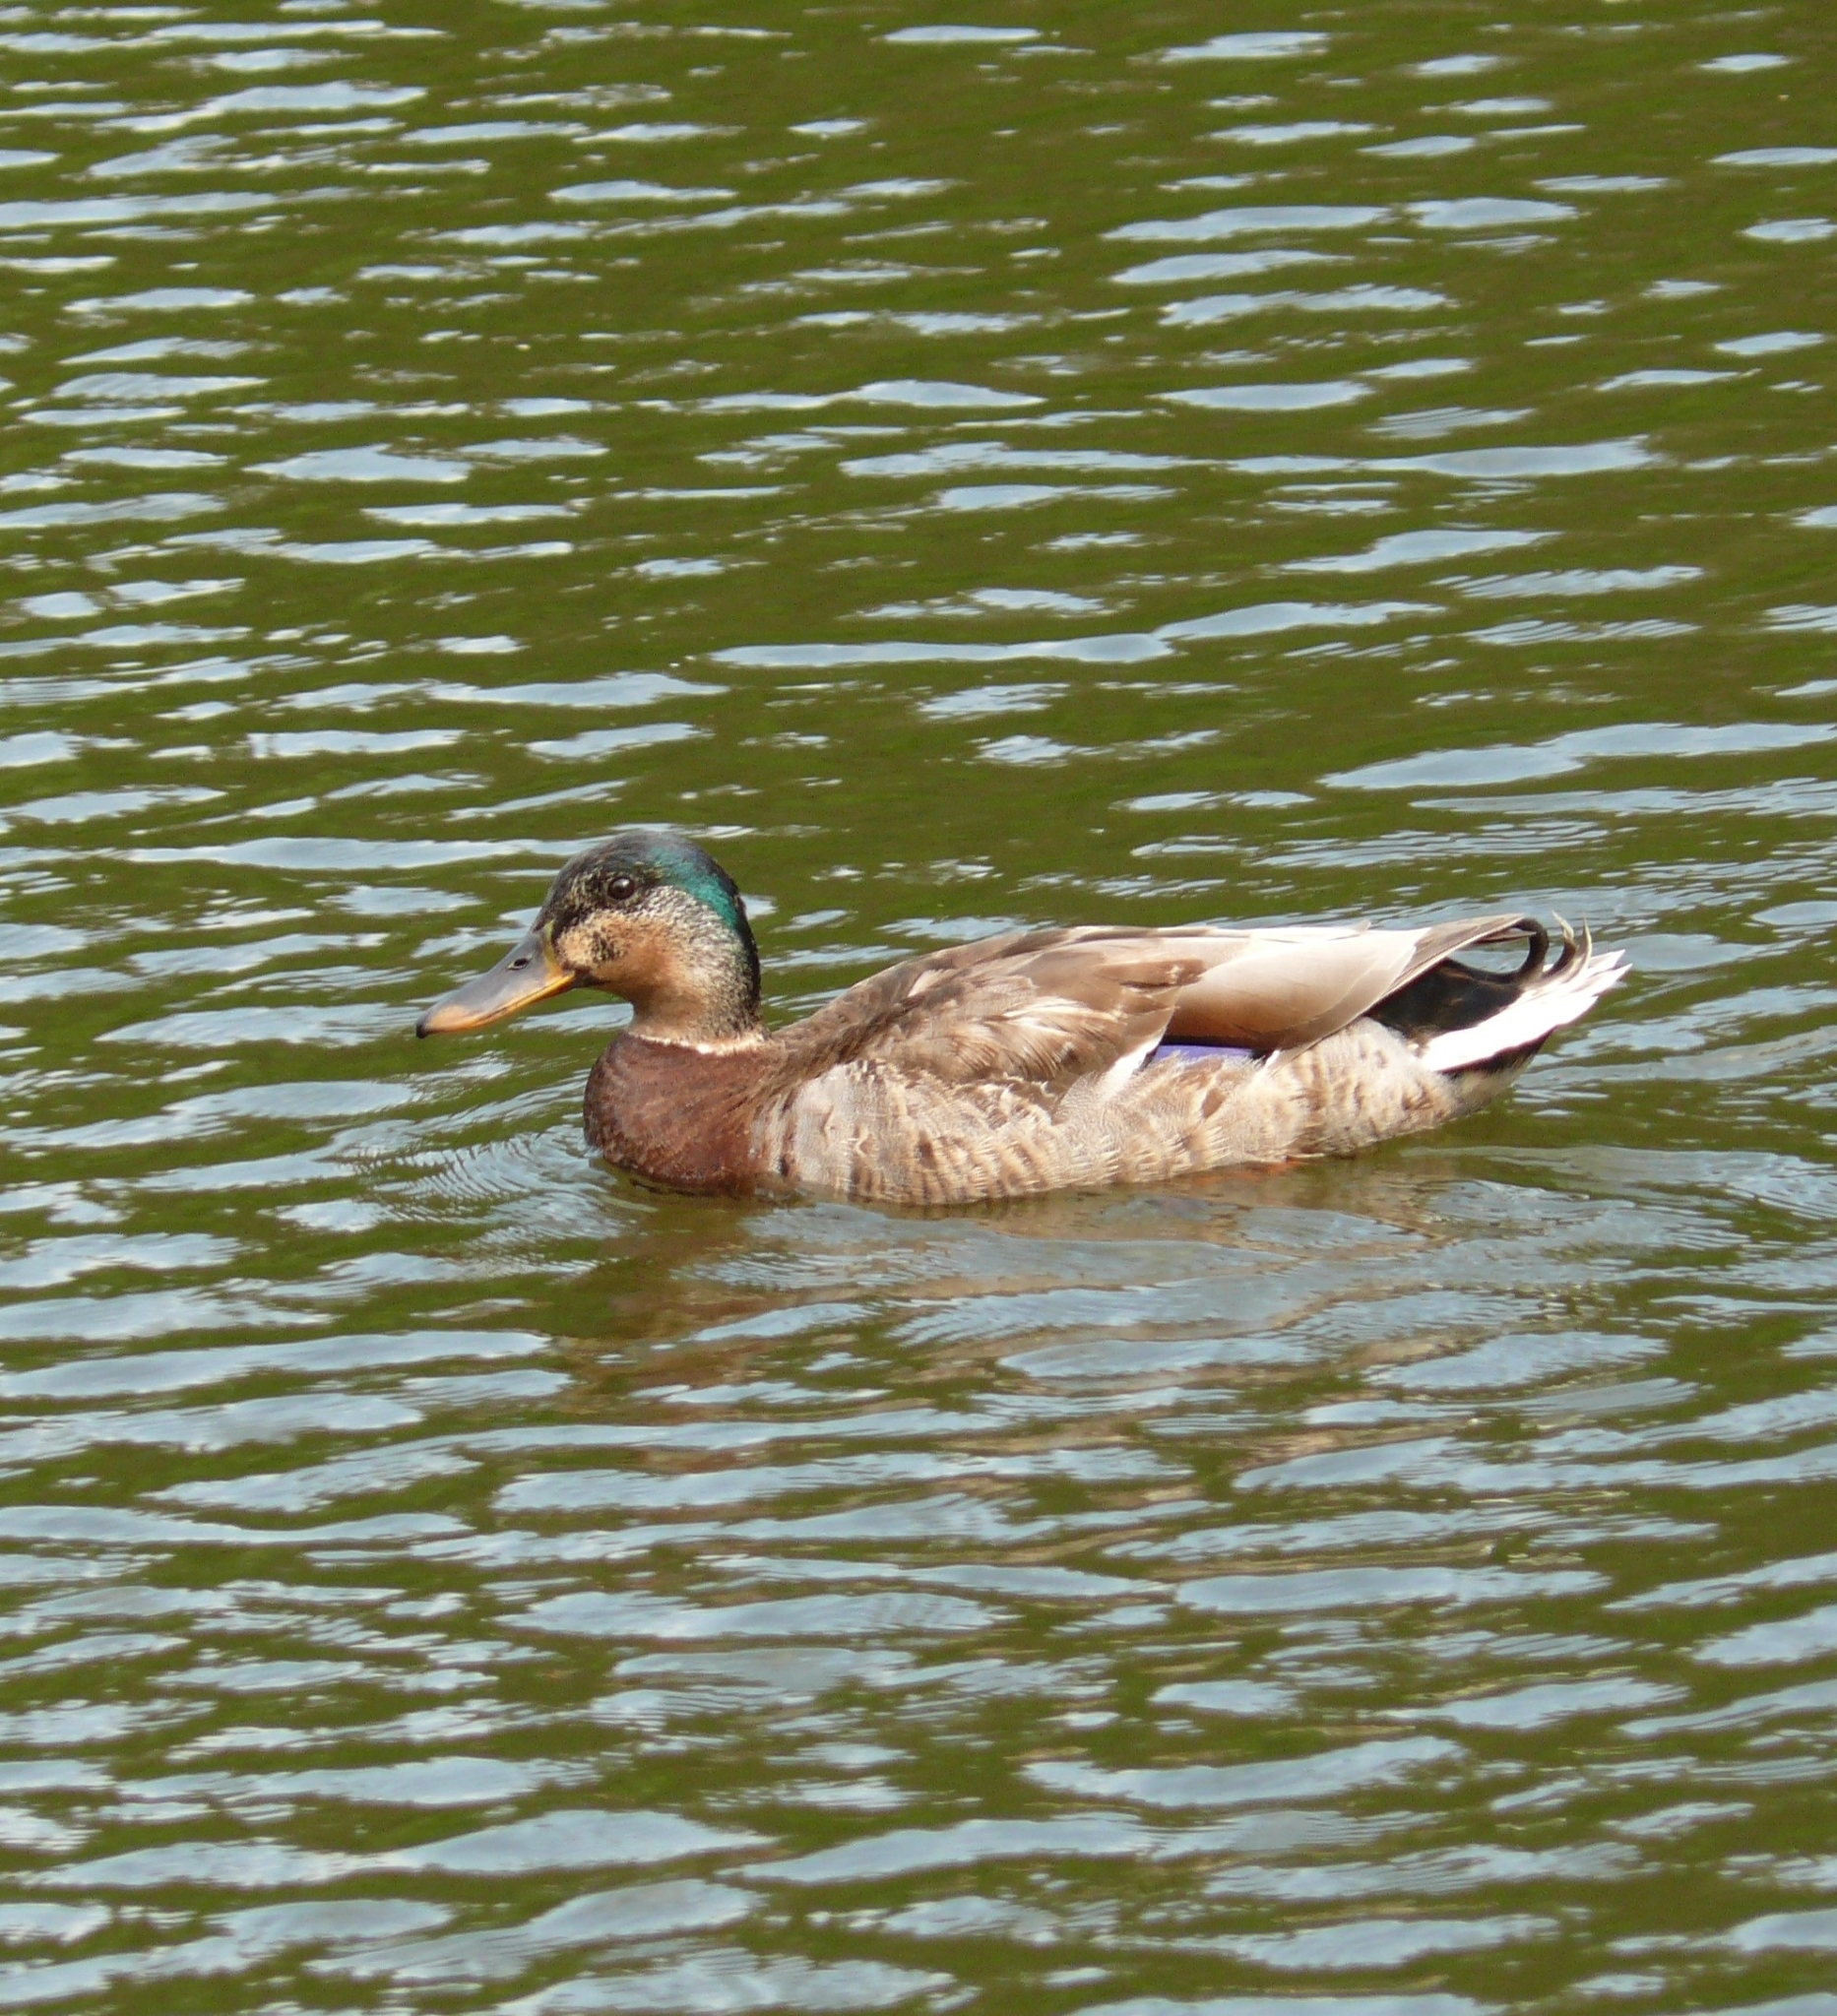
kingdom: Animalia
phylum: Chordata
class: Aves
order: Anseriformes
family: Anatidae
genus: Anas
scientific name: Anas platyrhynchos
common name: Mallard
